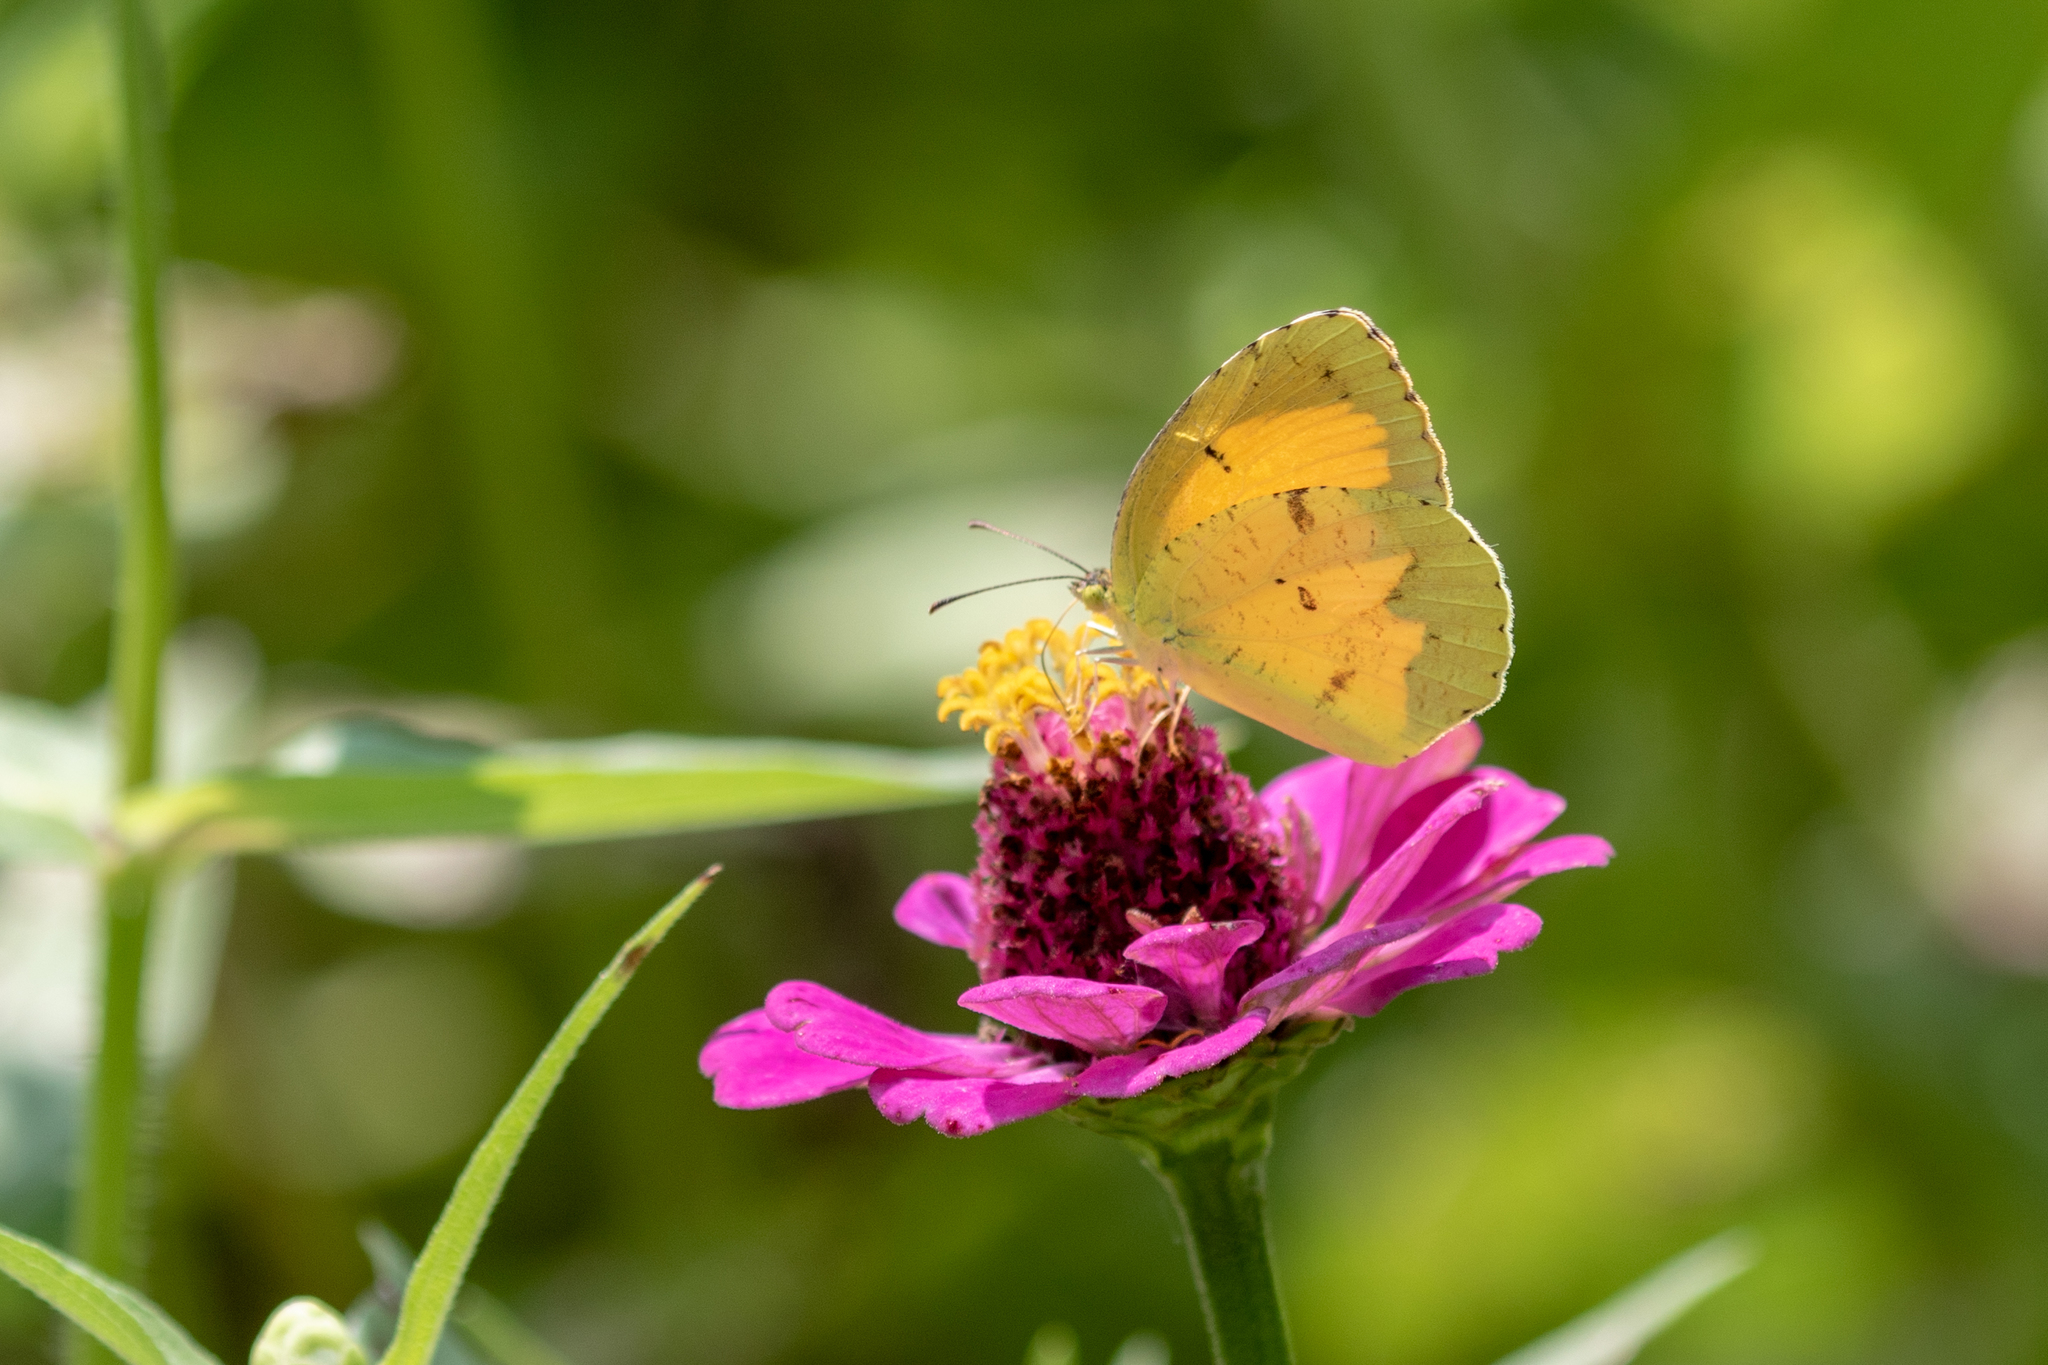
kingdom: Animalia
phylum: Arthropoda
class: Insecta
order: Lepidoptera
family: Pieridae
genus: Abaeis
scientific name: Abaeis nicippe
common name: Sleepy orange
